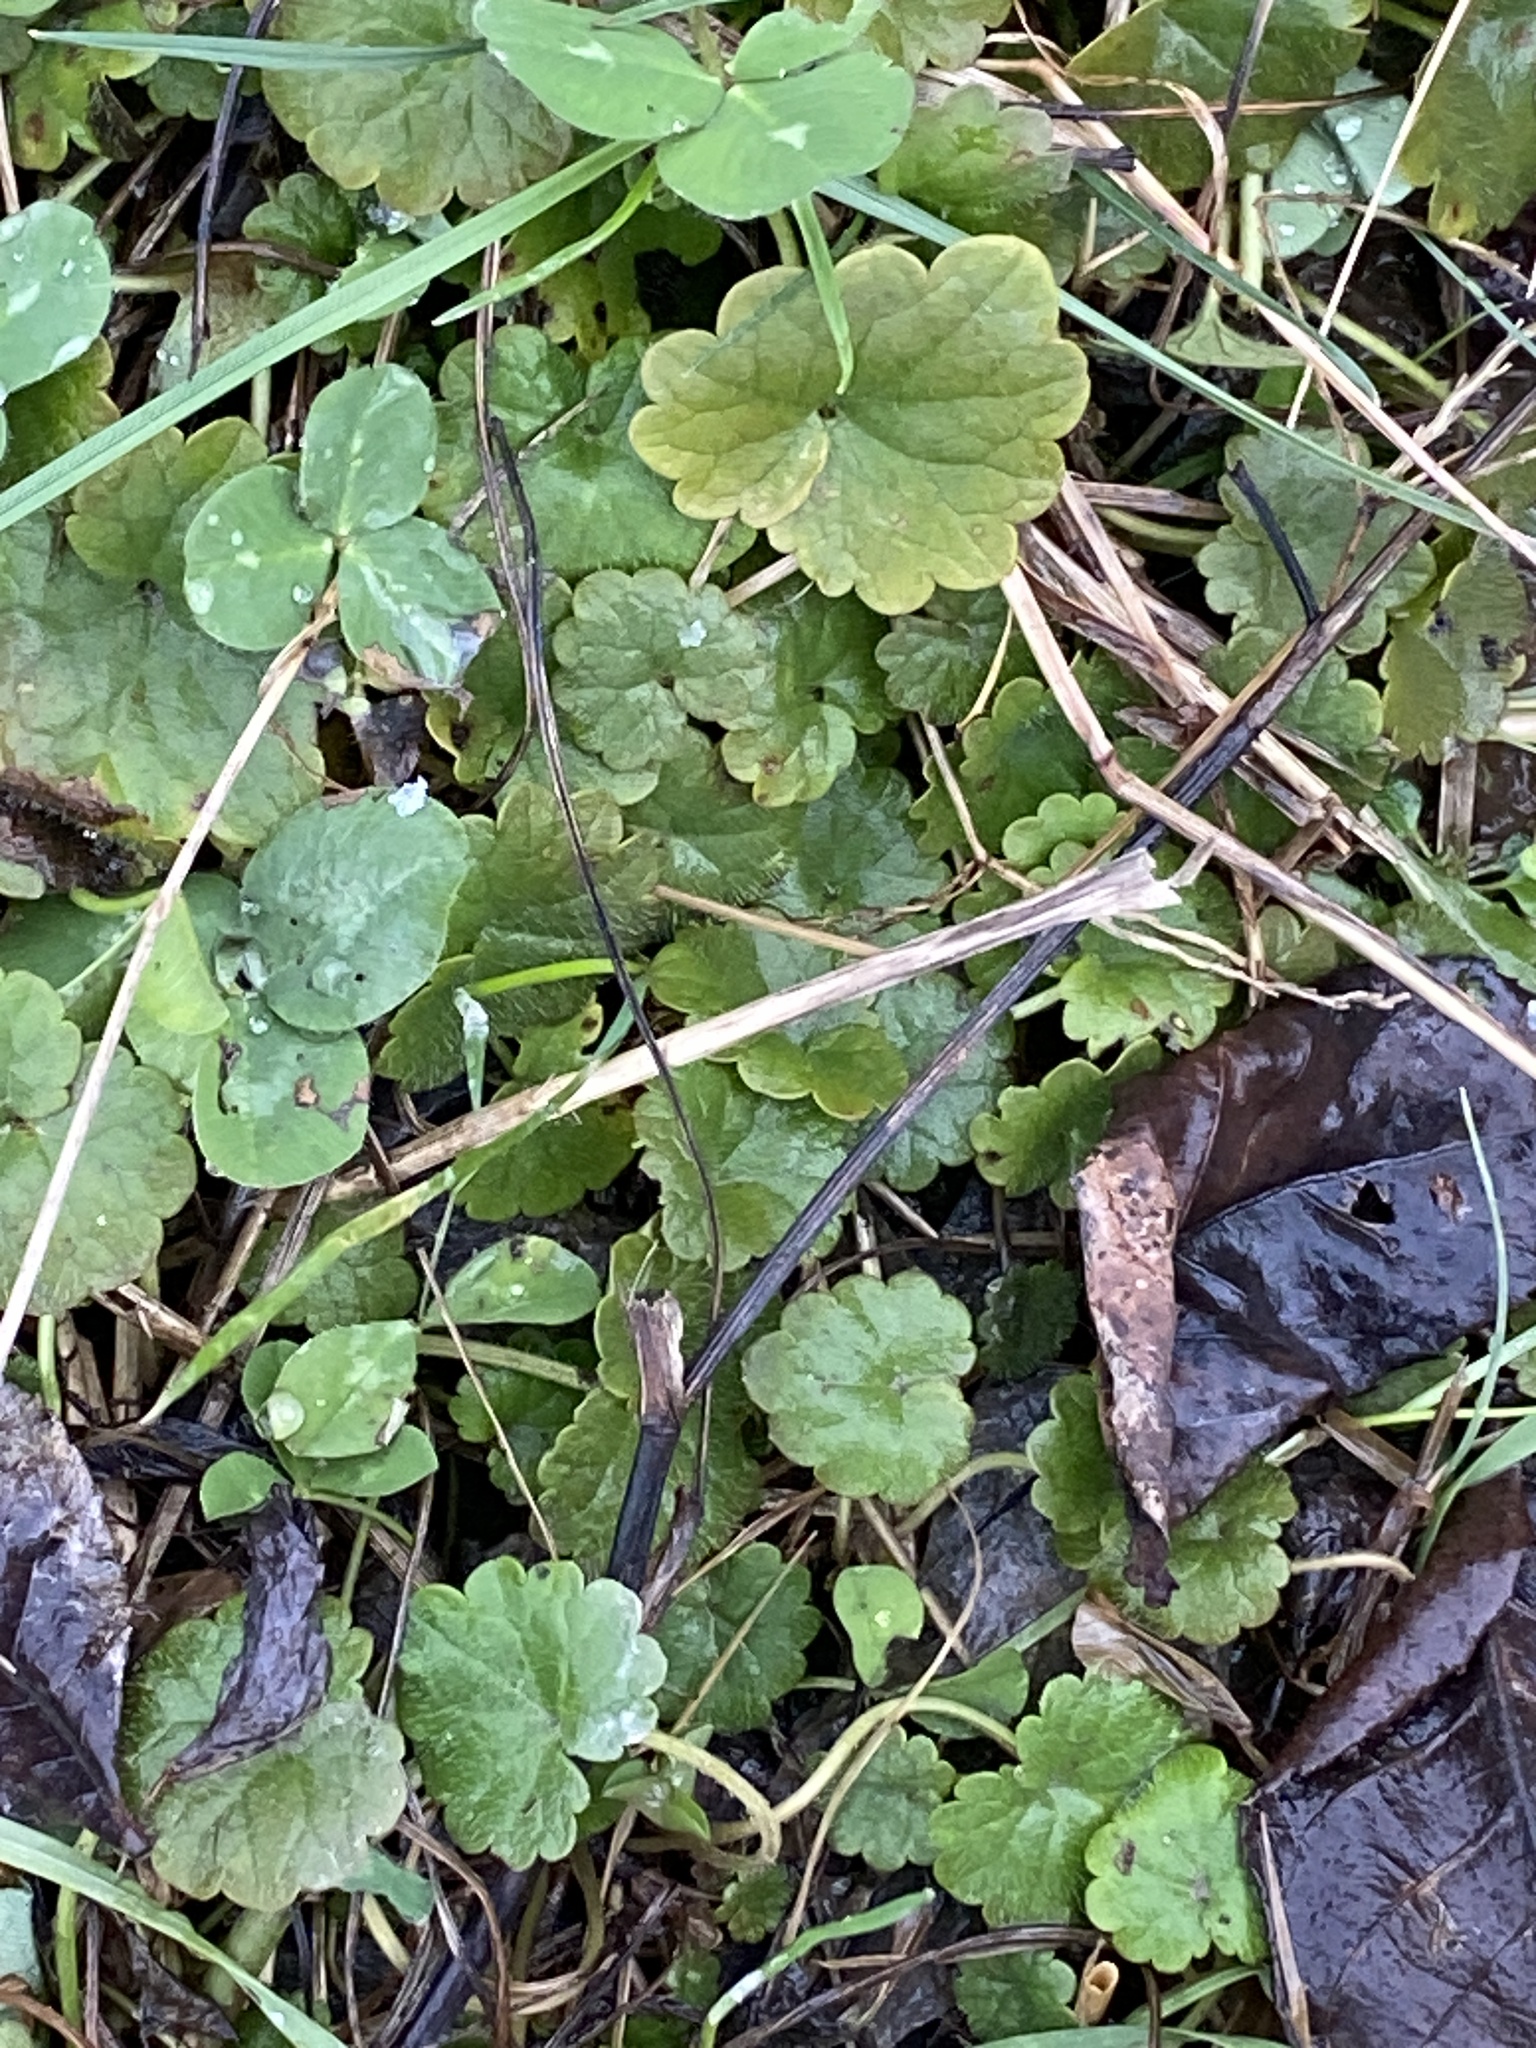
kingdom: Plantae
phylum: Tracheophyta
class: Magnoliopsida
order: Lamiales
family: Lamiaceae
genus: Glechoma
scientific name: Glechoma hederacea
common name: Ground ivy
